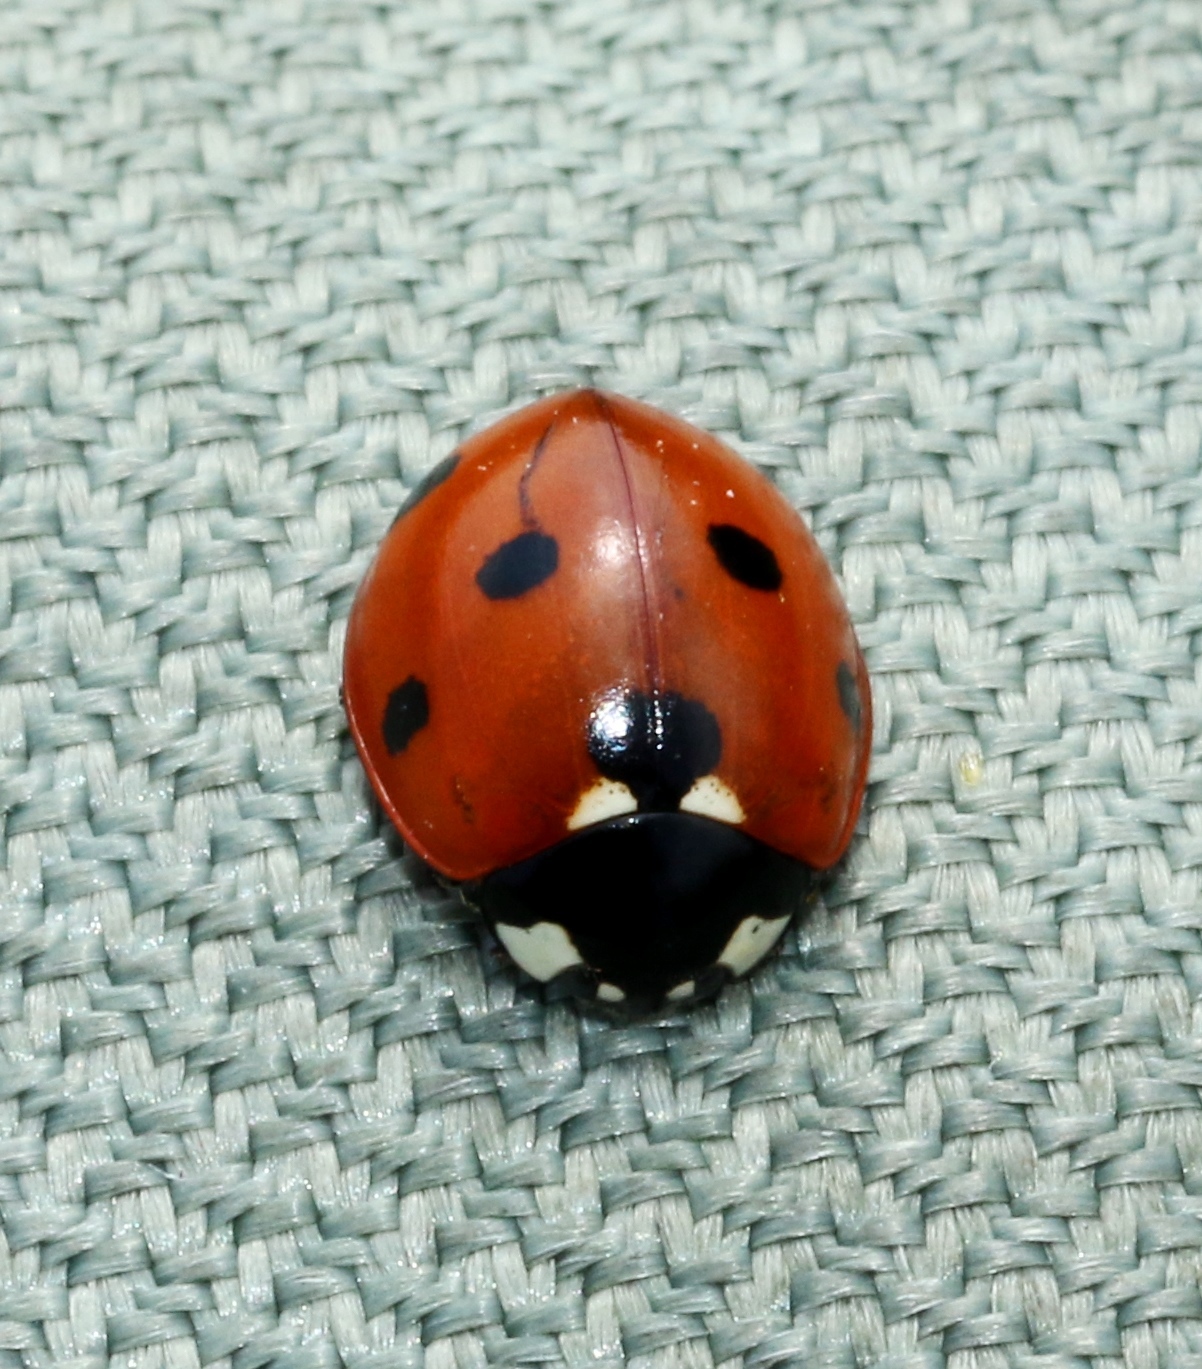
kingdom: Animalia
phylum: Arthropoda
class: Insecta
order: Coleoptera
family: Coccinellidae
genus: Coccinella
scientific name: Coccinella septempunctata
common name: Sevenspotted lady beetle
